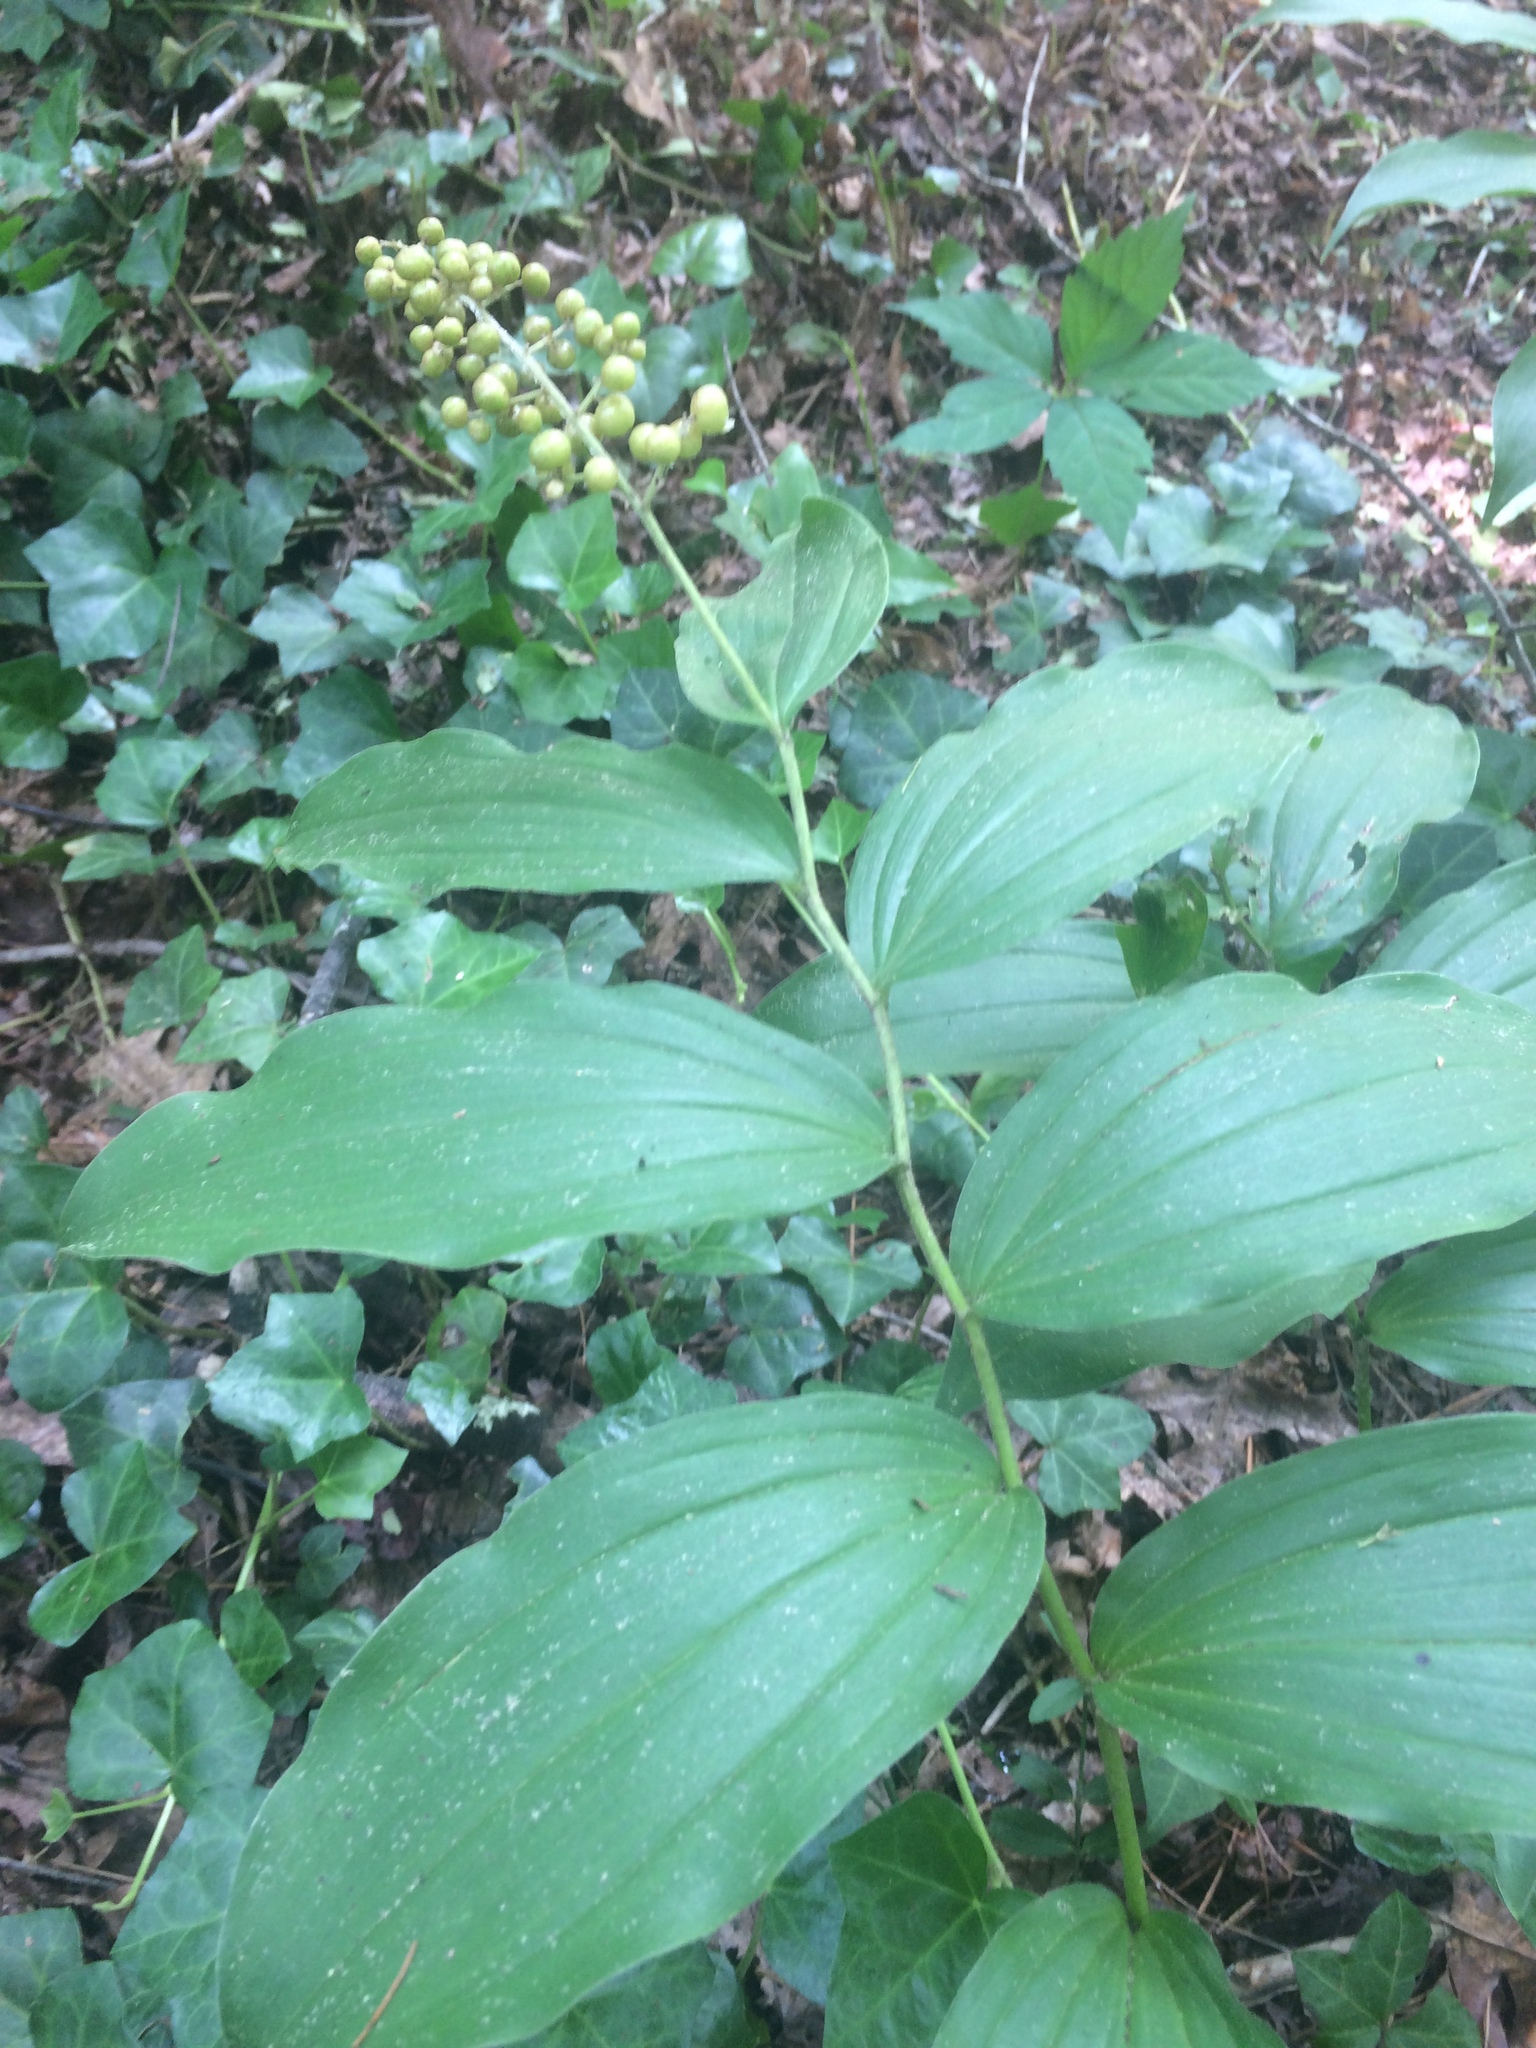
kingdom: Plantae
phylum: Tracheophyta
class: Liliopsida
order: Asparagales
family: Asparagaceae
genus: Maianthemum
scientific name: Maianthemum racemosum
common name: False spikenard
